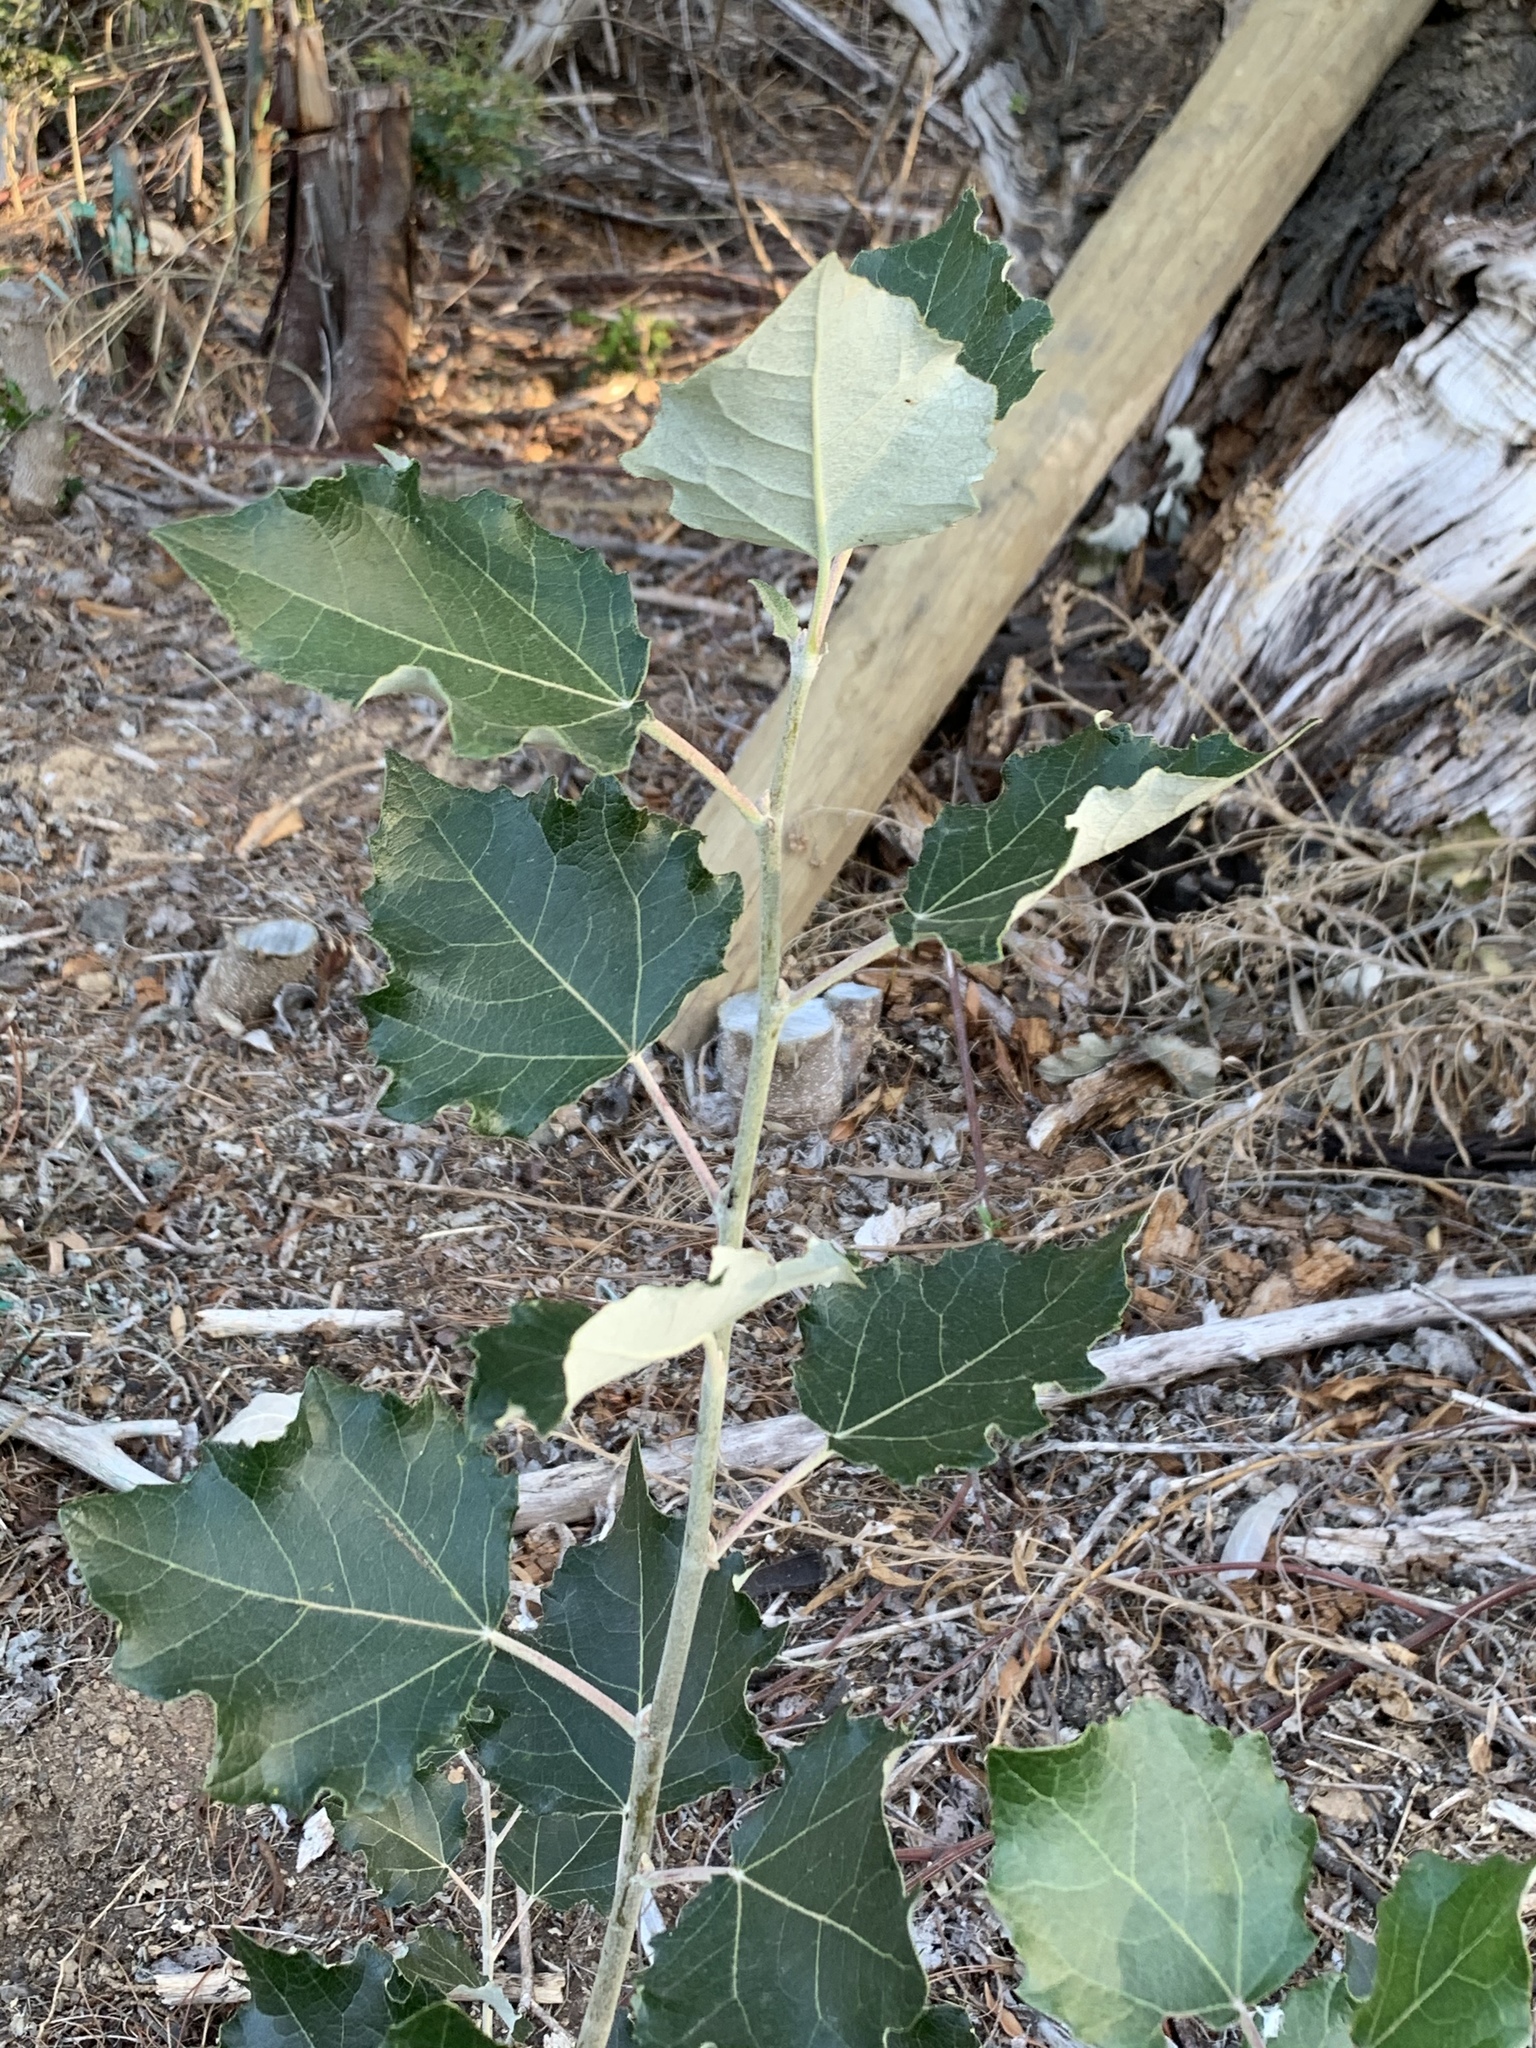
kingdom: Plantae
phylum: Tracheophyta
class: Magnoliopsida
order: Malpighiales
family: Salicaceae
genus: Populus
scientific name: Populus canescens
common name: Gray poplar
